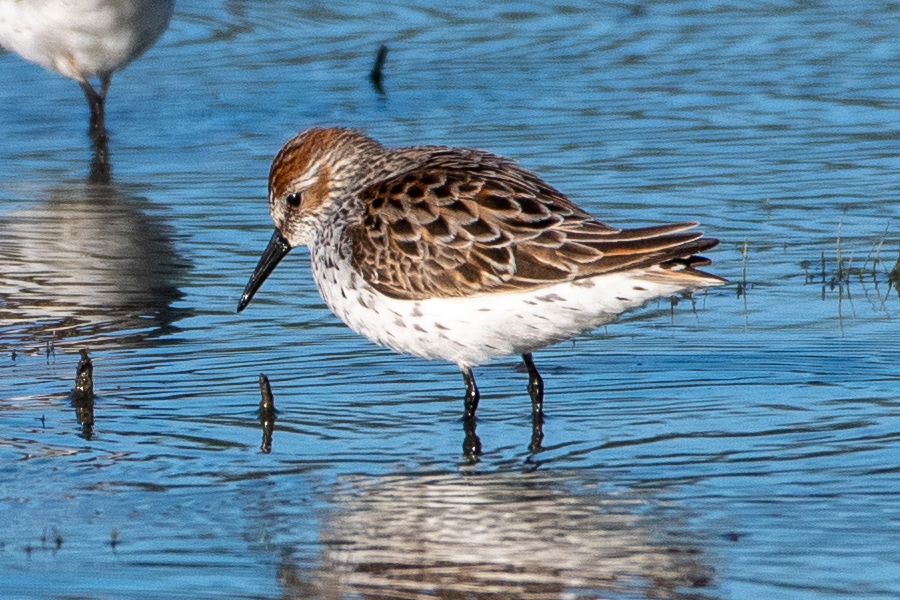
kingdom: Animalia
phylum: Chordata
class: Aves
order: Charadriiformes
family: Scolopacidae
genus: Calidris
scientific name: Calidris mauri
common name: Western sandpiper
